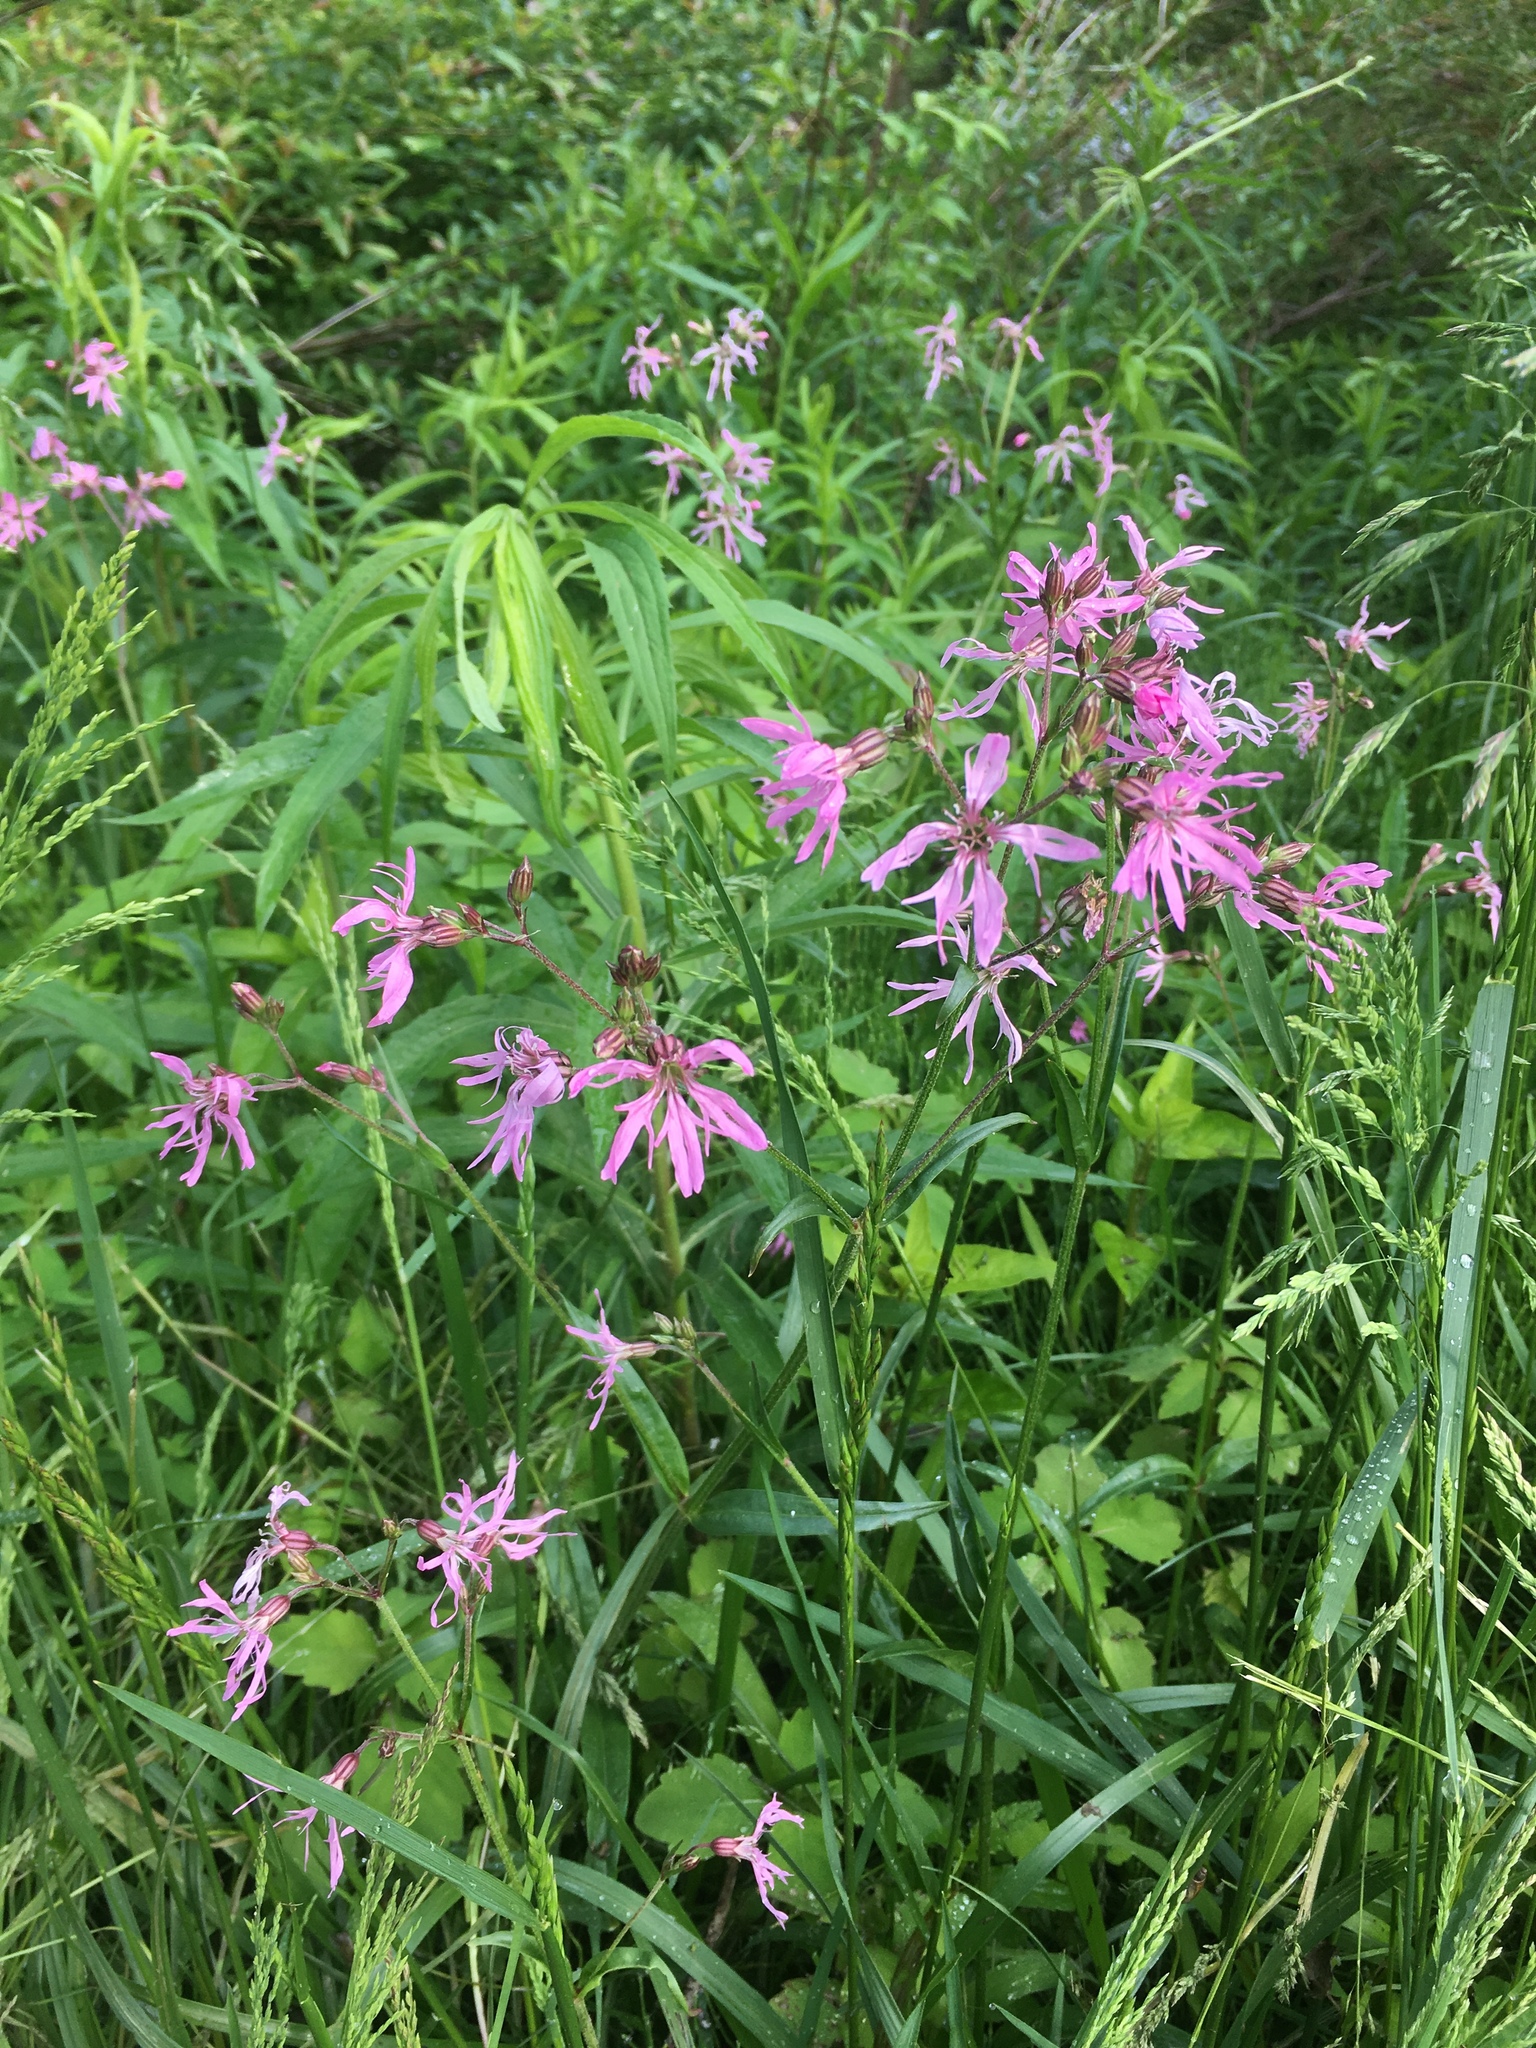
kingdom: Plantae
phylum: Tracheophyta
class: Magnoliopsida
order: Caryophyllales
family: Caryophyllaceae
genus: Silene
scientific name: Silene flos-cuculi
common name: Ragged-robin
